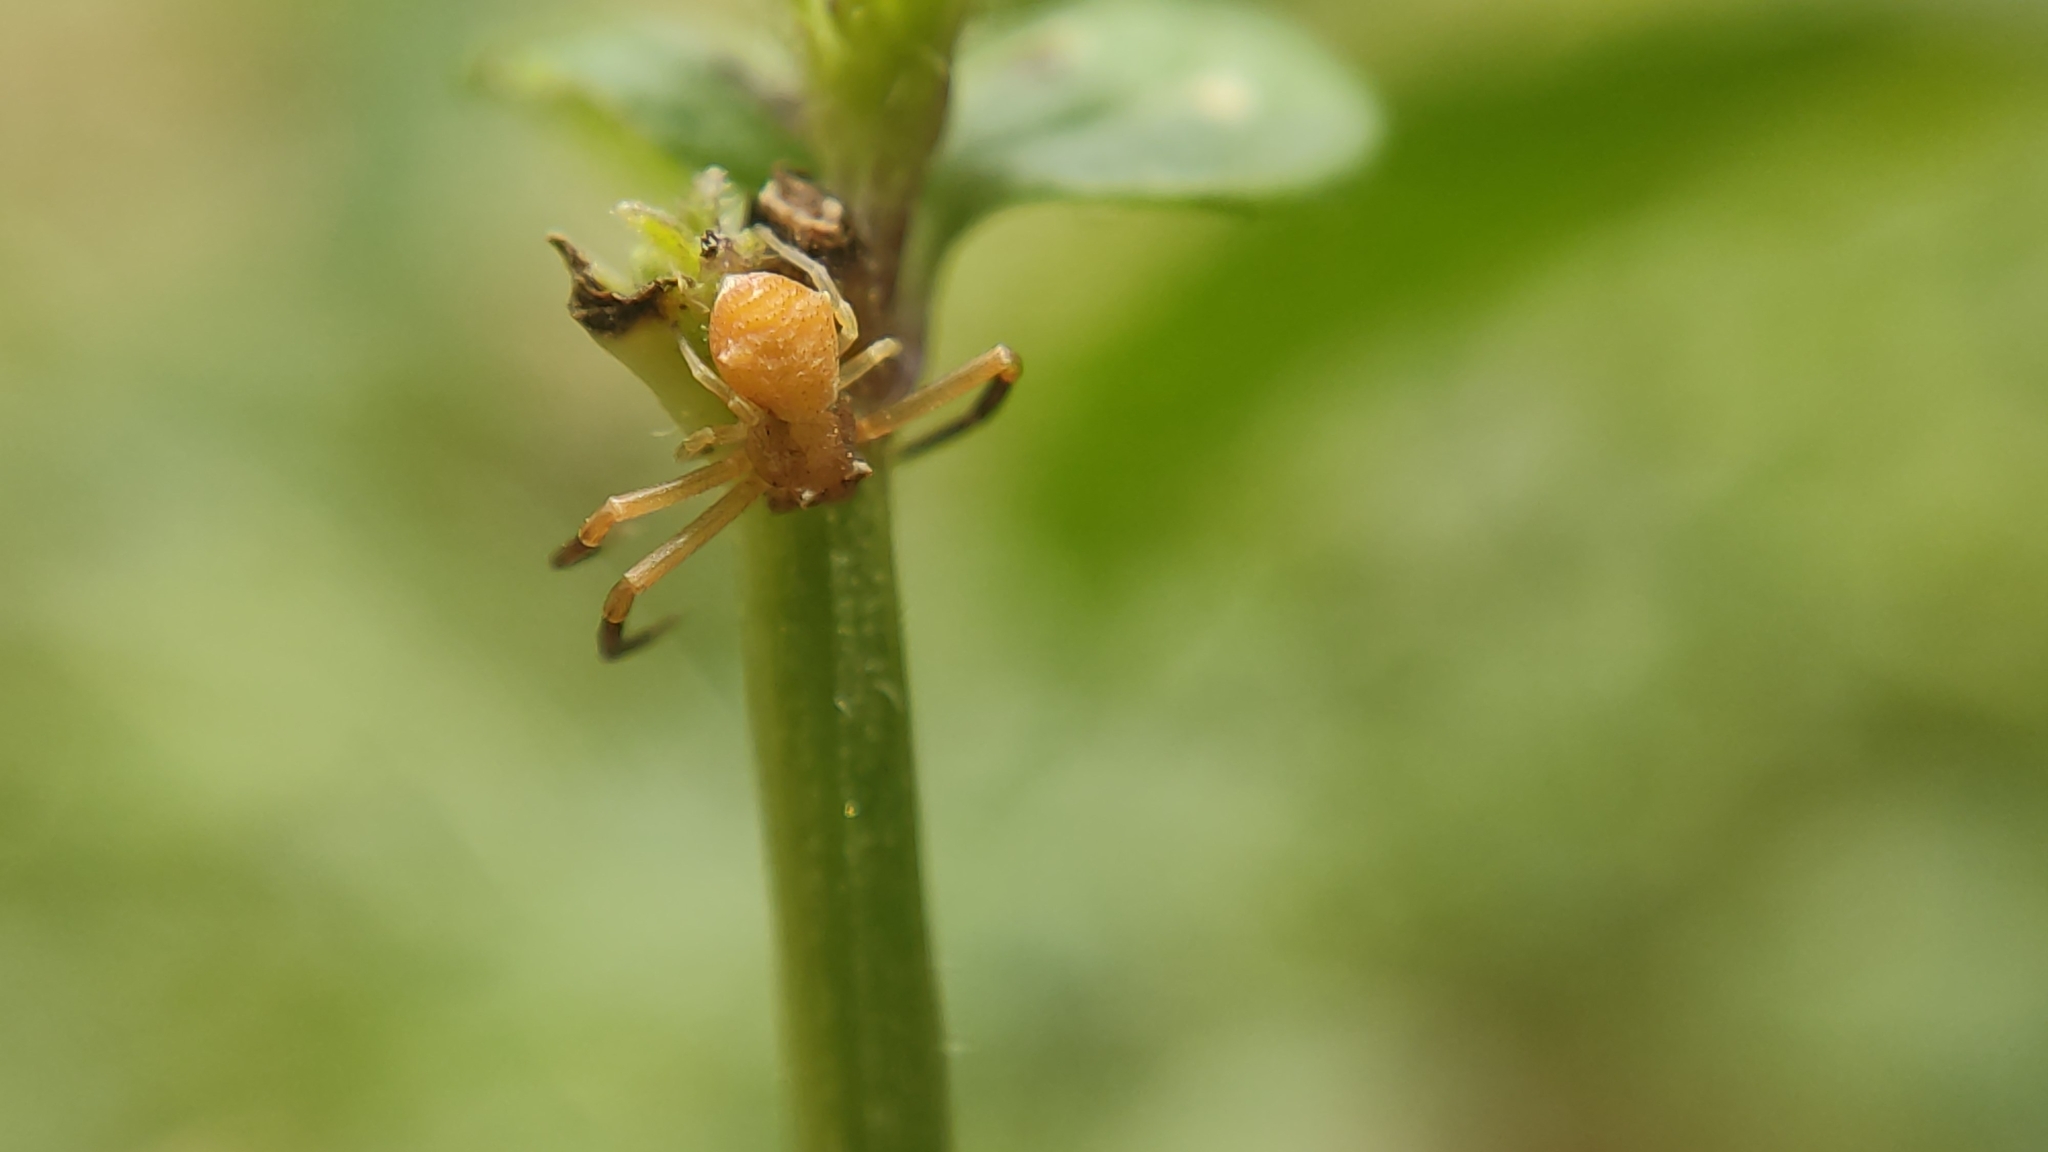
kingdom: Animalia
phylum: Arthropoda
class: Arachnida
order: Araneae
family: Thomisidae
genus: Thomisus
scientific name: Thomisus onustus
